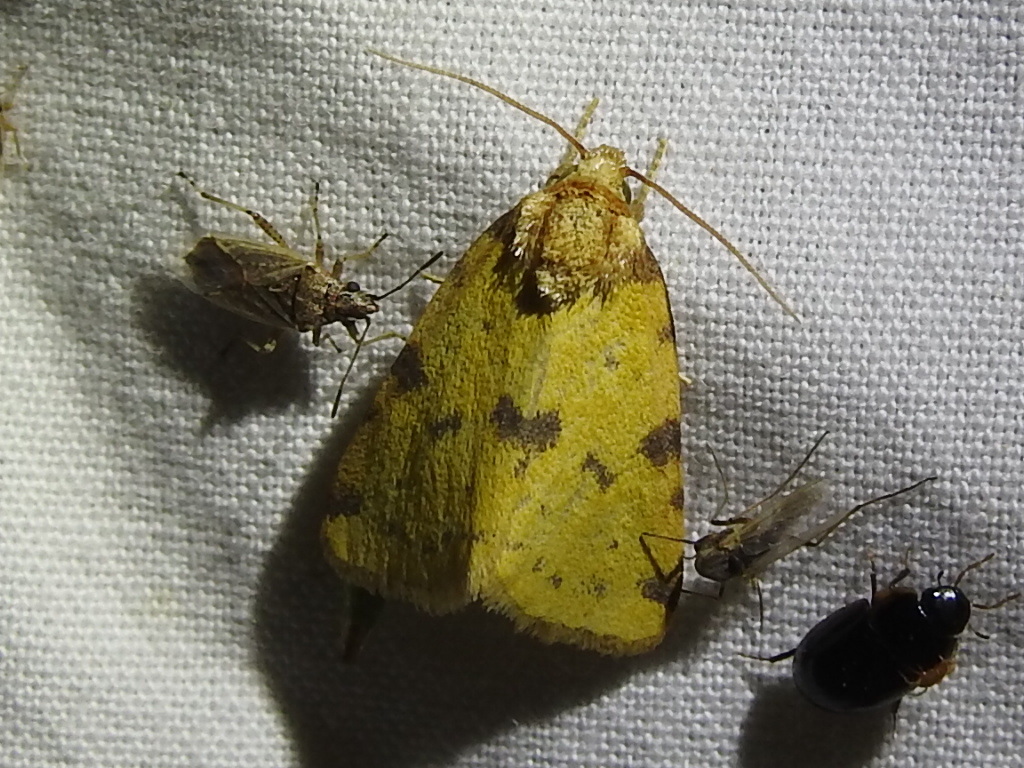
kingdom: Animalia
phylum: Arthropoda
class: Insecta
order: Lepidoptera
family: Noctuidae
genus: Azenia
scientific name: Azenia obtusa
